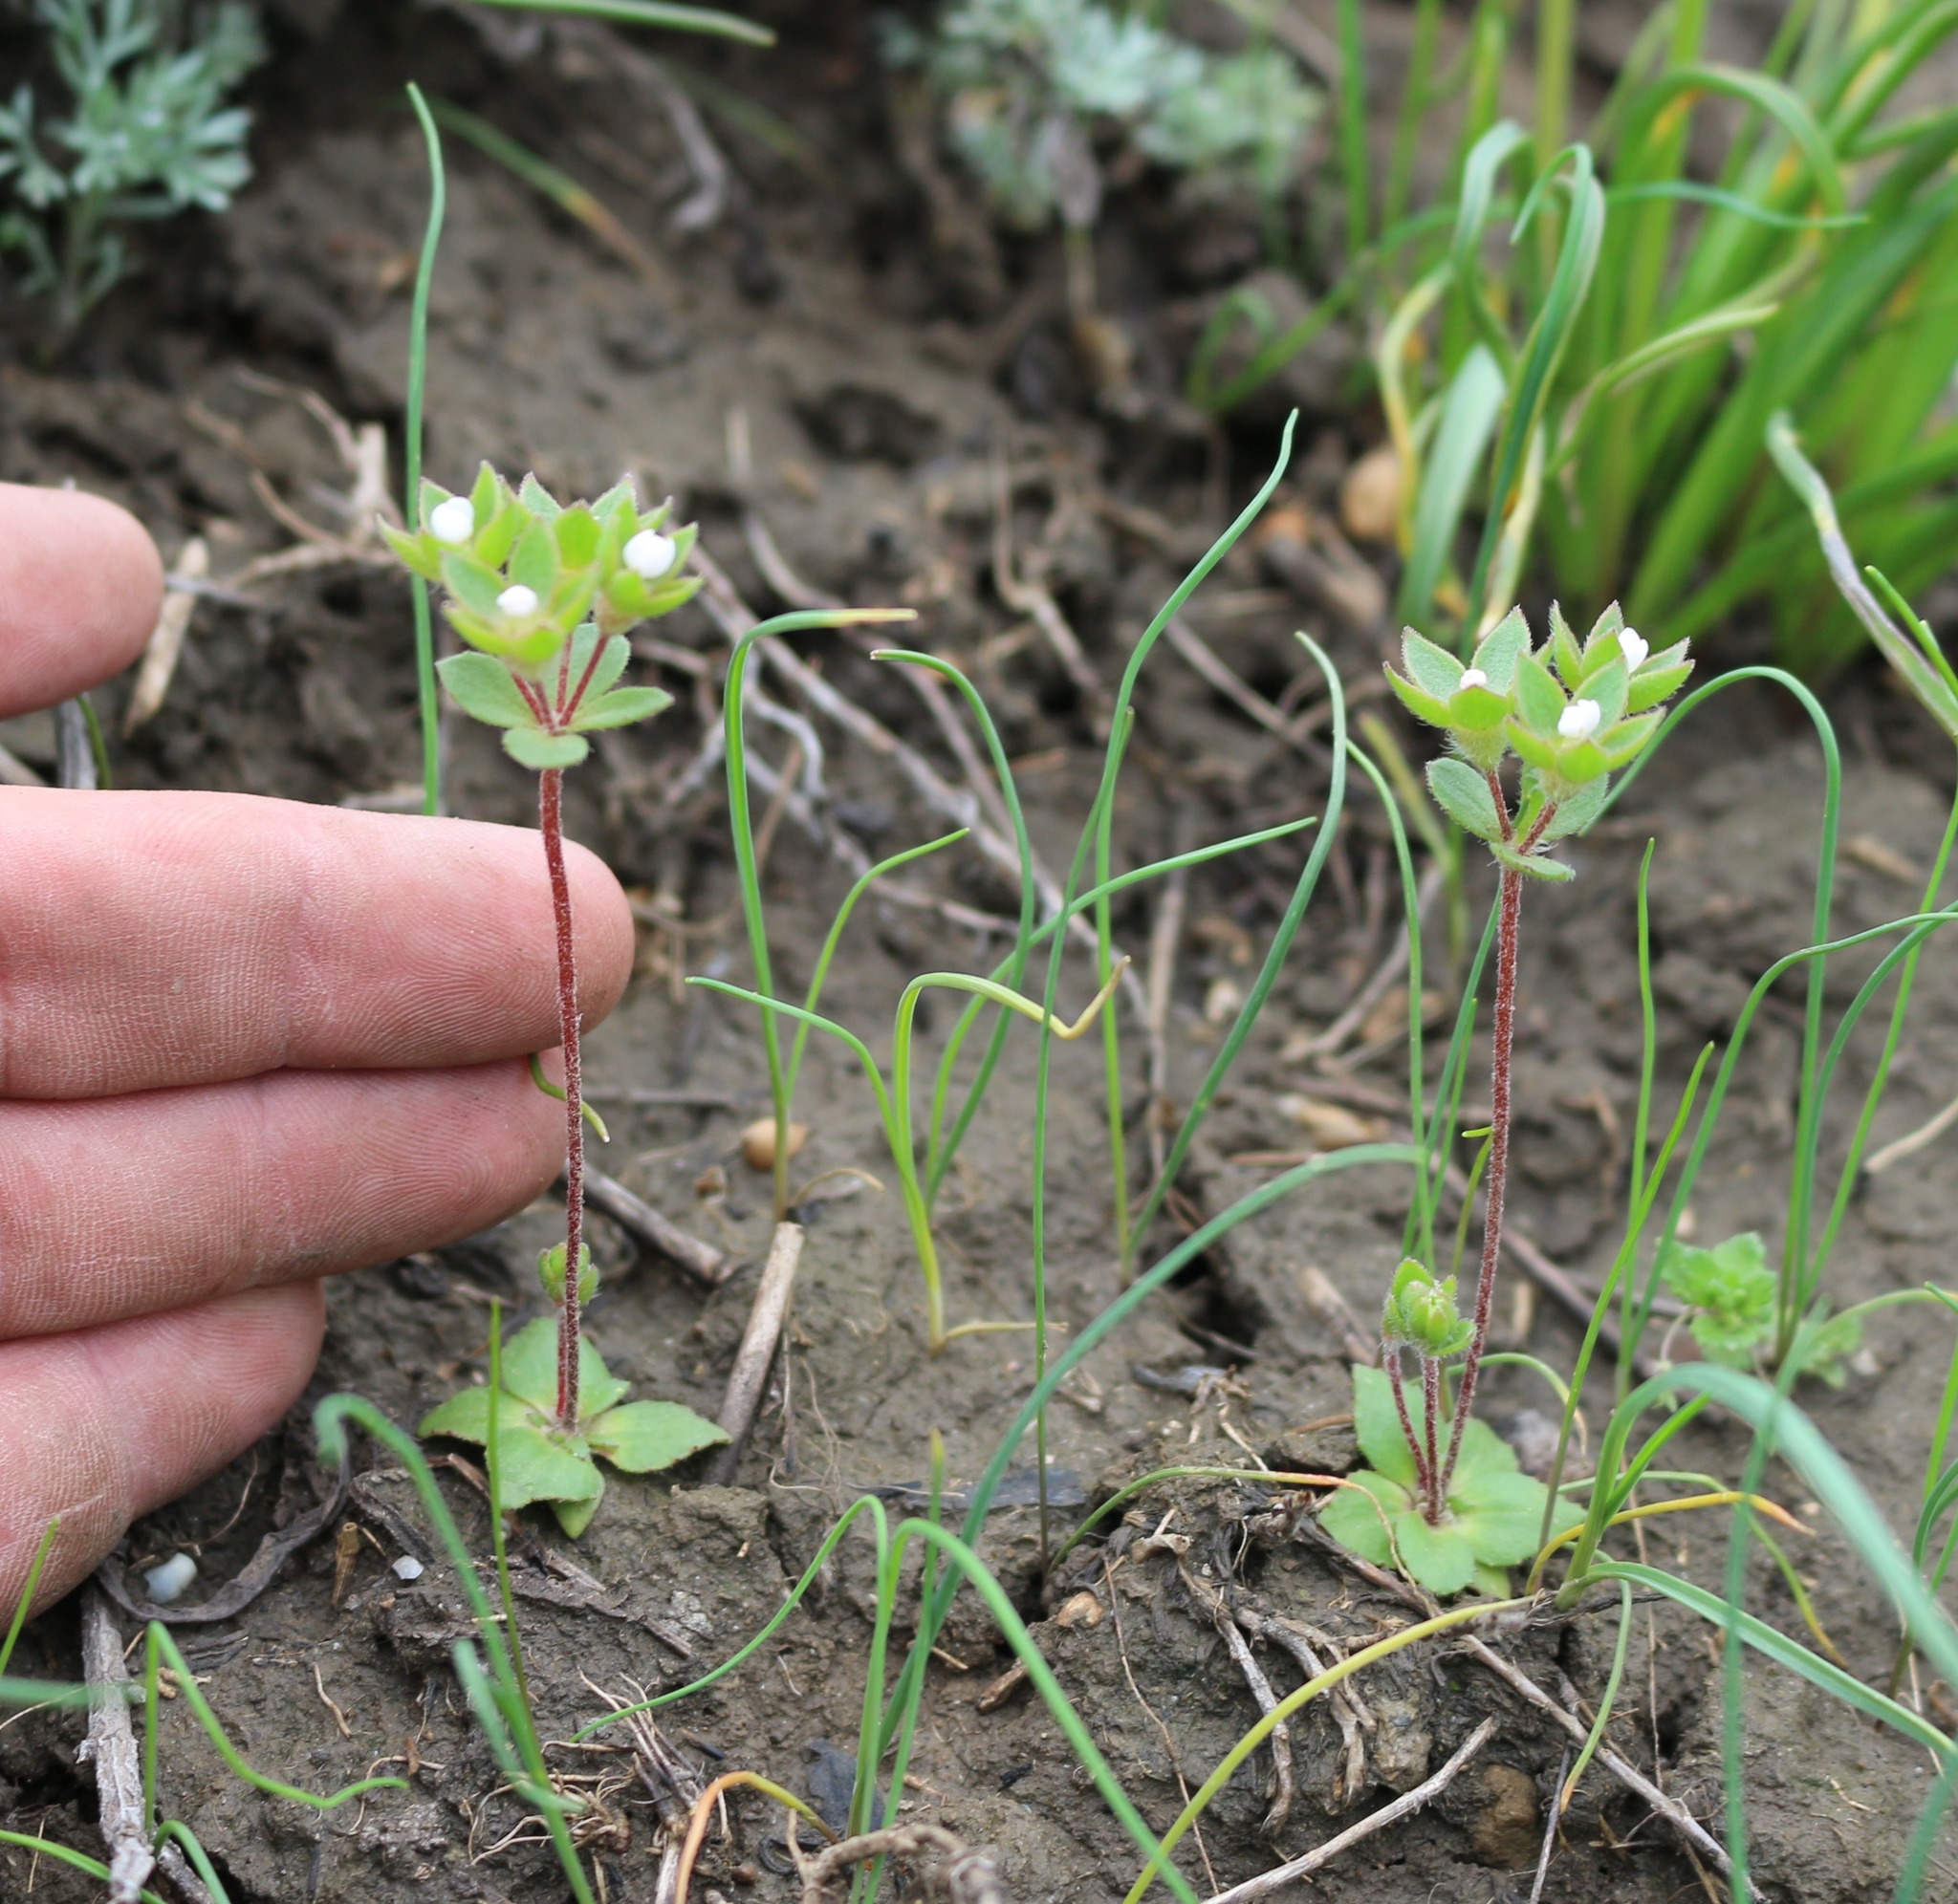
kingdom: Plantae
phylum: Tracheophyta
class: Magnoliopsida
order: Ericales
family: Primulaceae
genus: Androsace
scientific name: Androsace maxima
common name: Annual androsace
